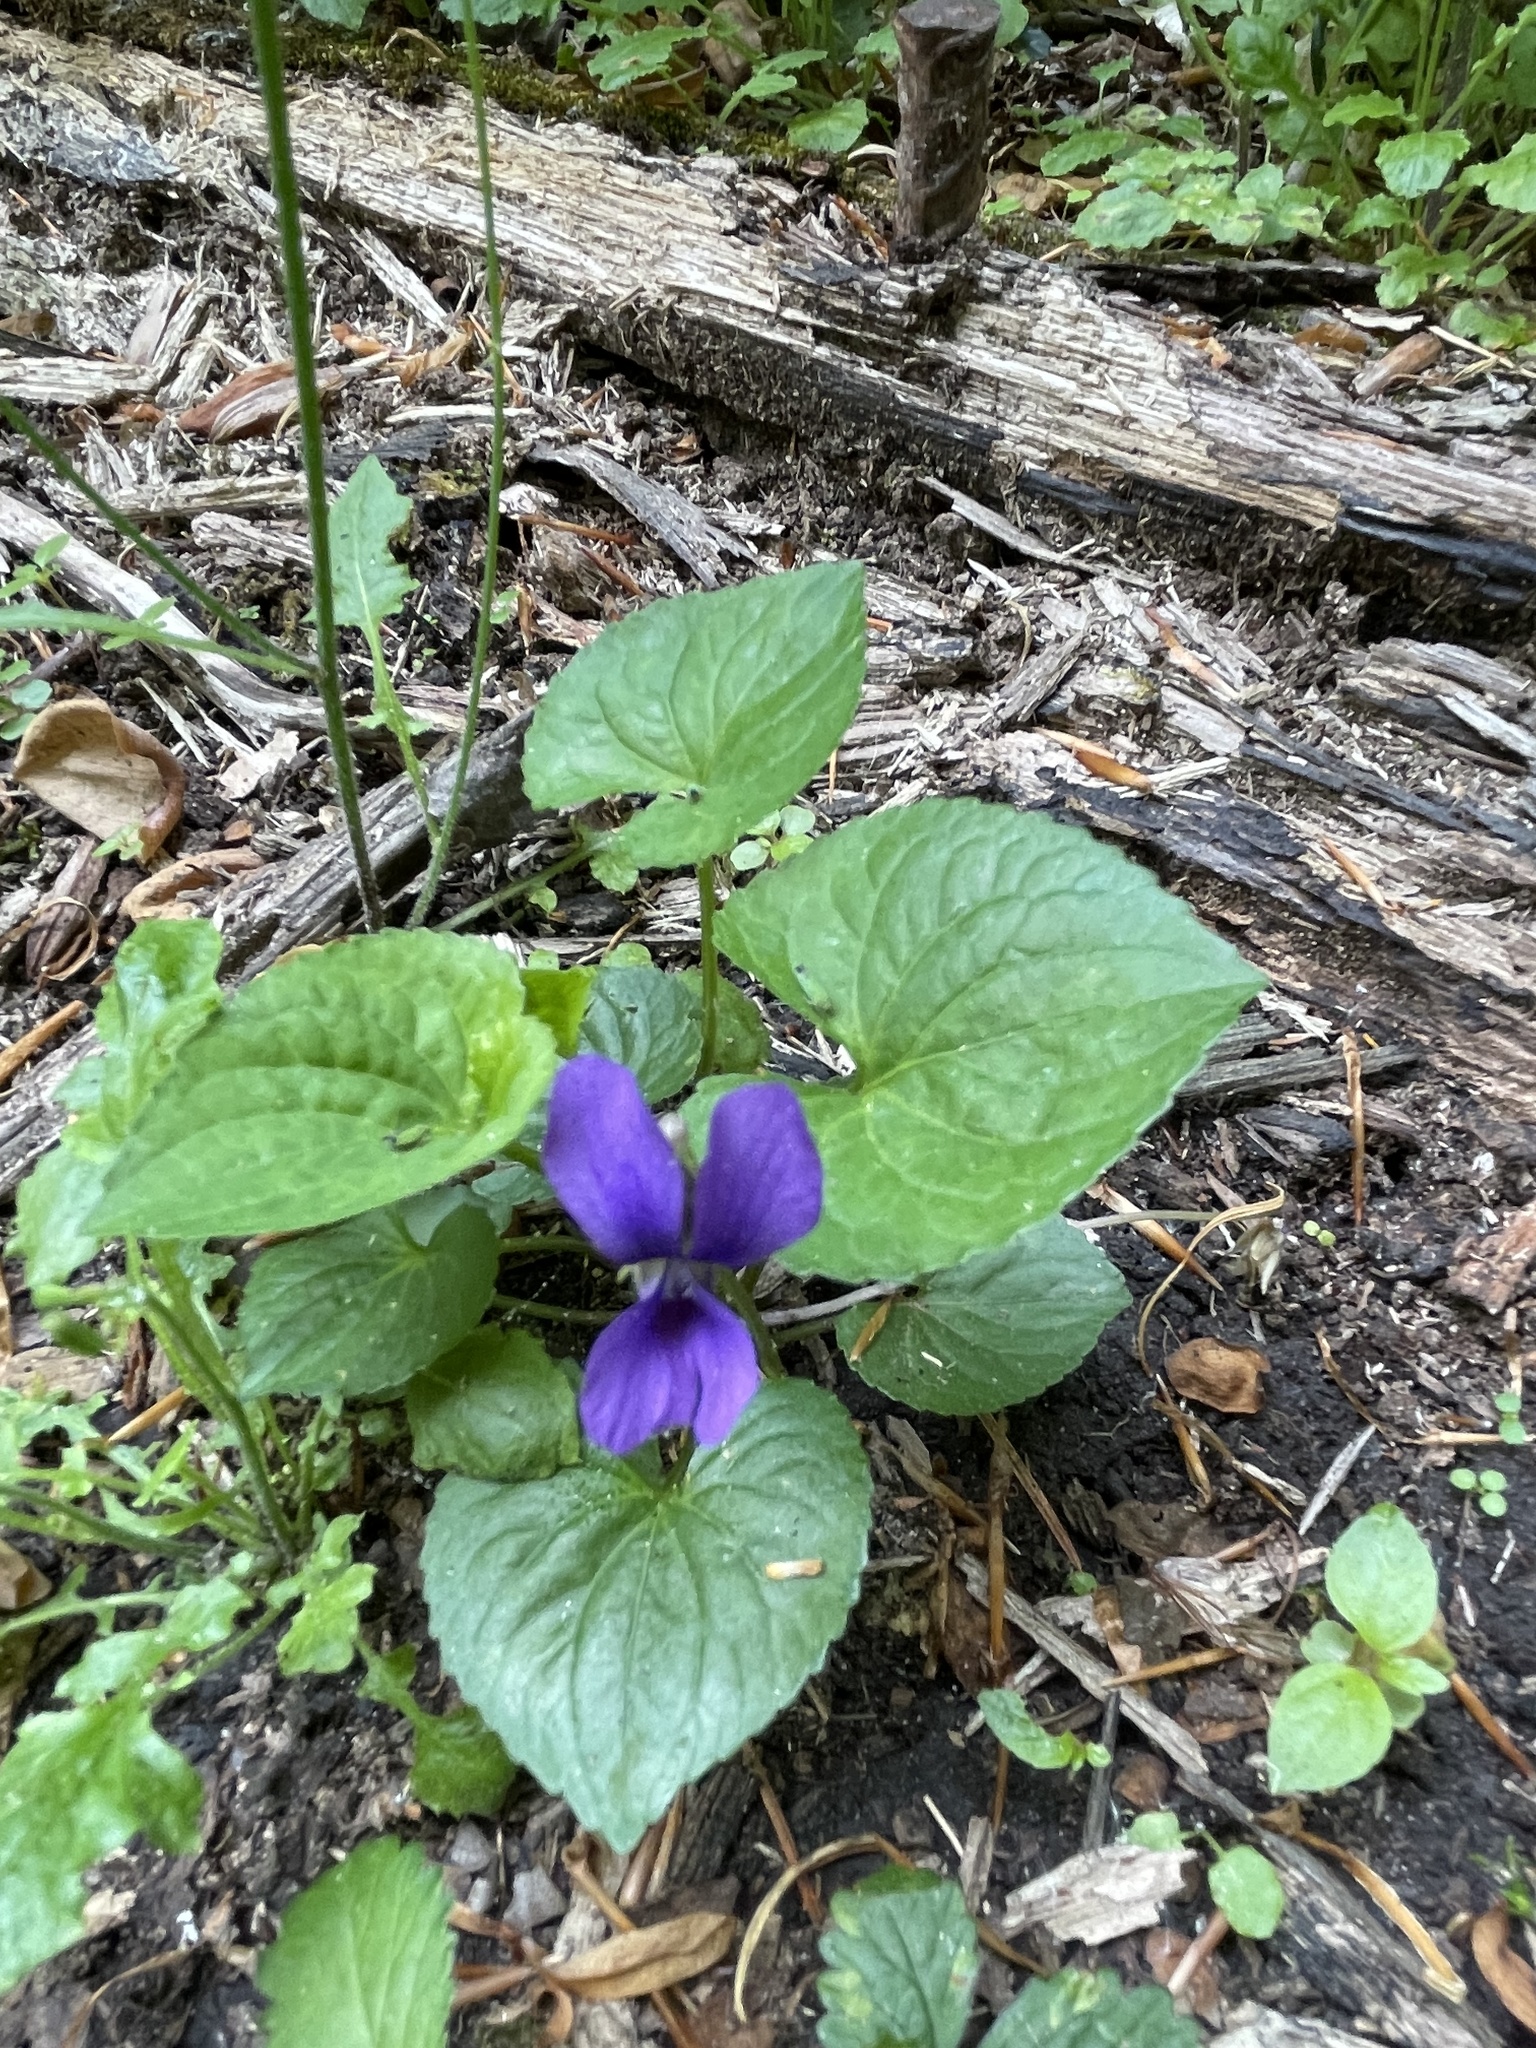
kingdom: Plantae
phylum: Tracheophyta
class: Magnoliopsida
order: Malpighiales
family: Violaceae
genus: Viola
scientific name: Viola sororia
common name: Dooryard violet
